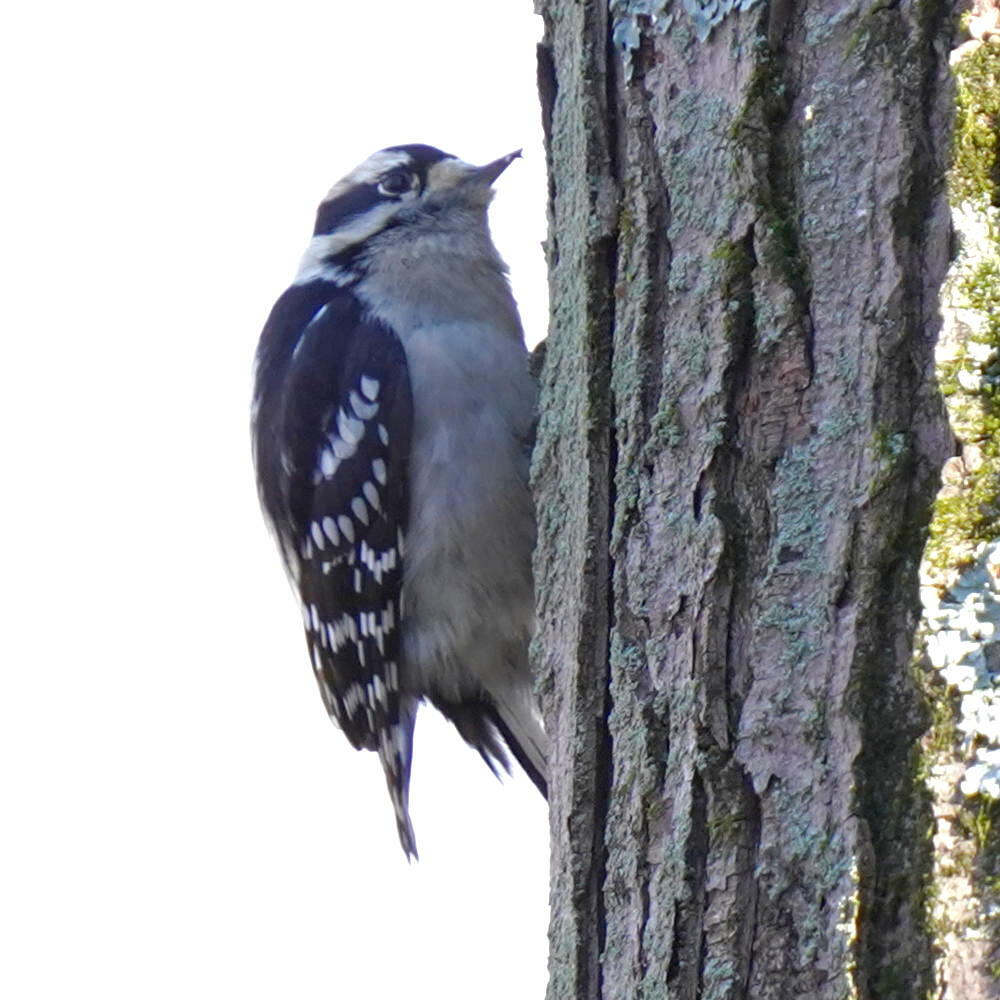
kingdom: Animalia
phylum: Chordata
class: Aves
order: Piciformes
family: Picidae
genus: Dryobates
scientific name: Dryobates pubescens
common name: Downy woodpecker
